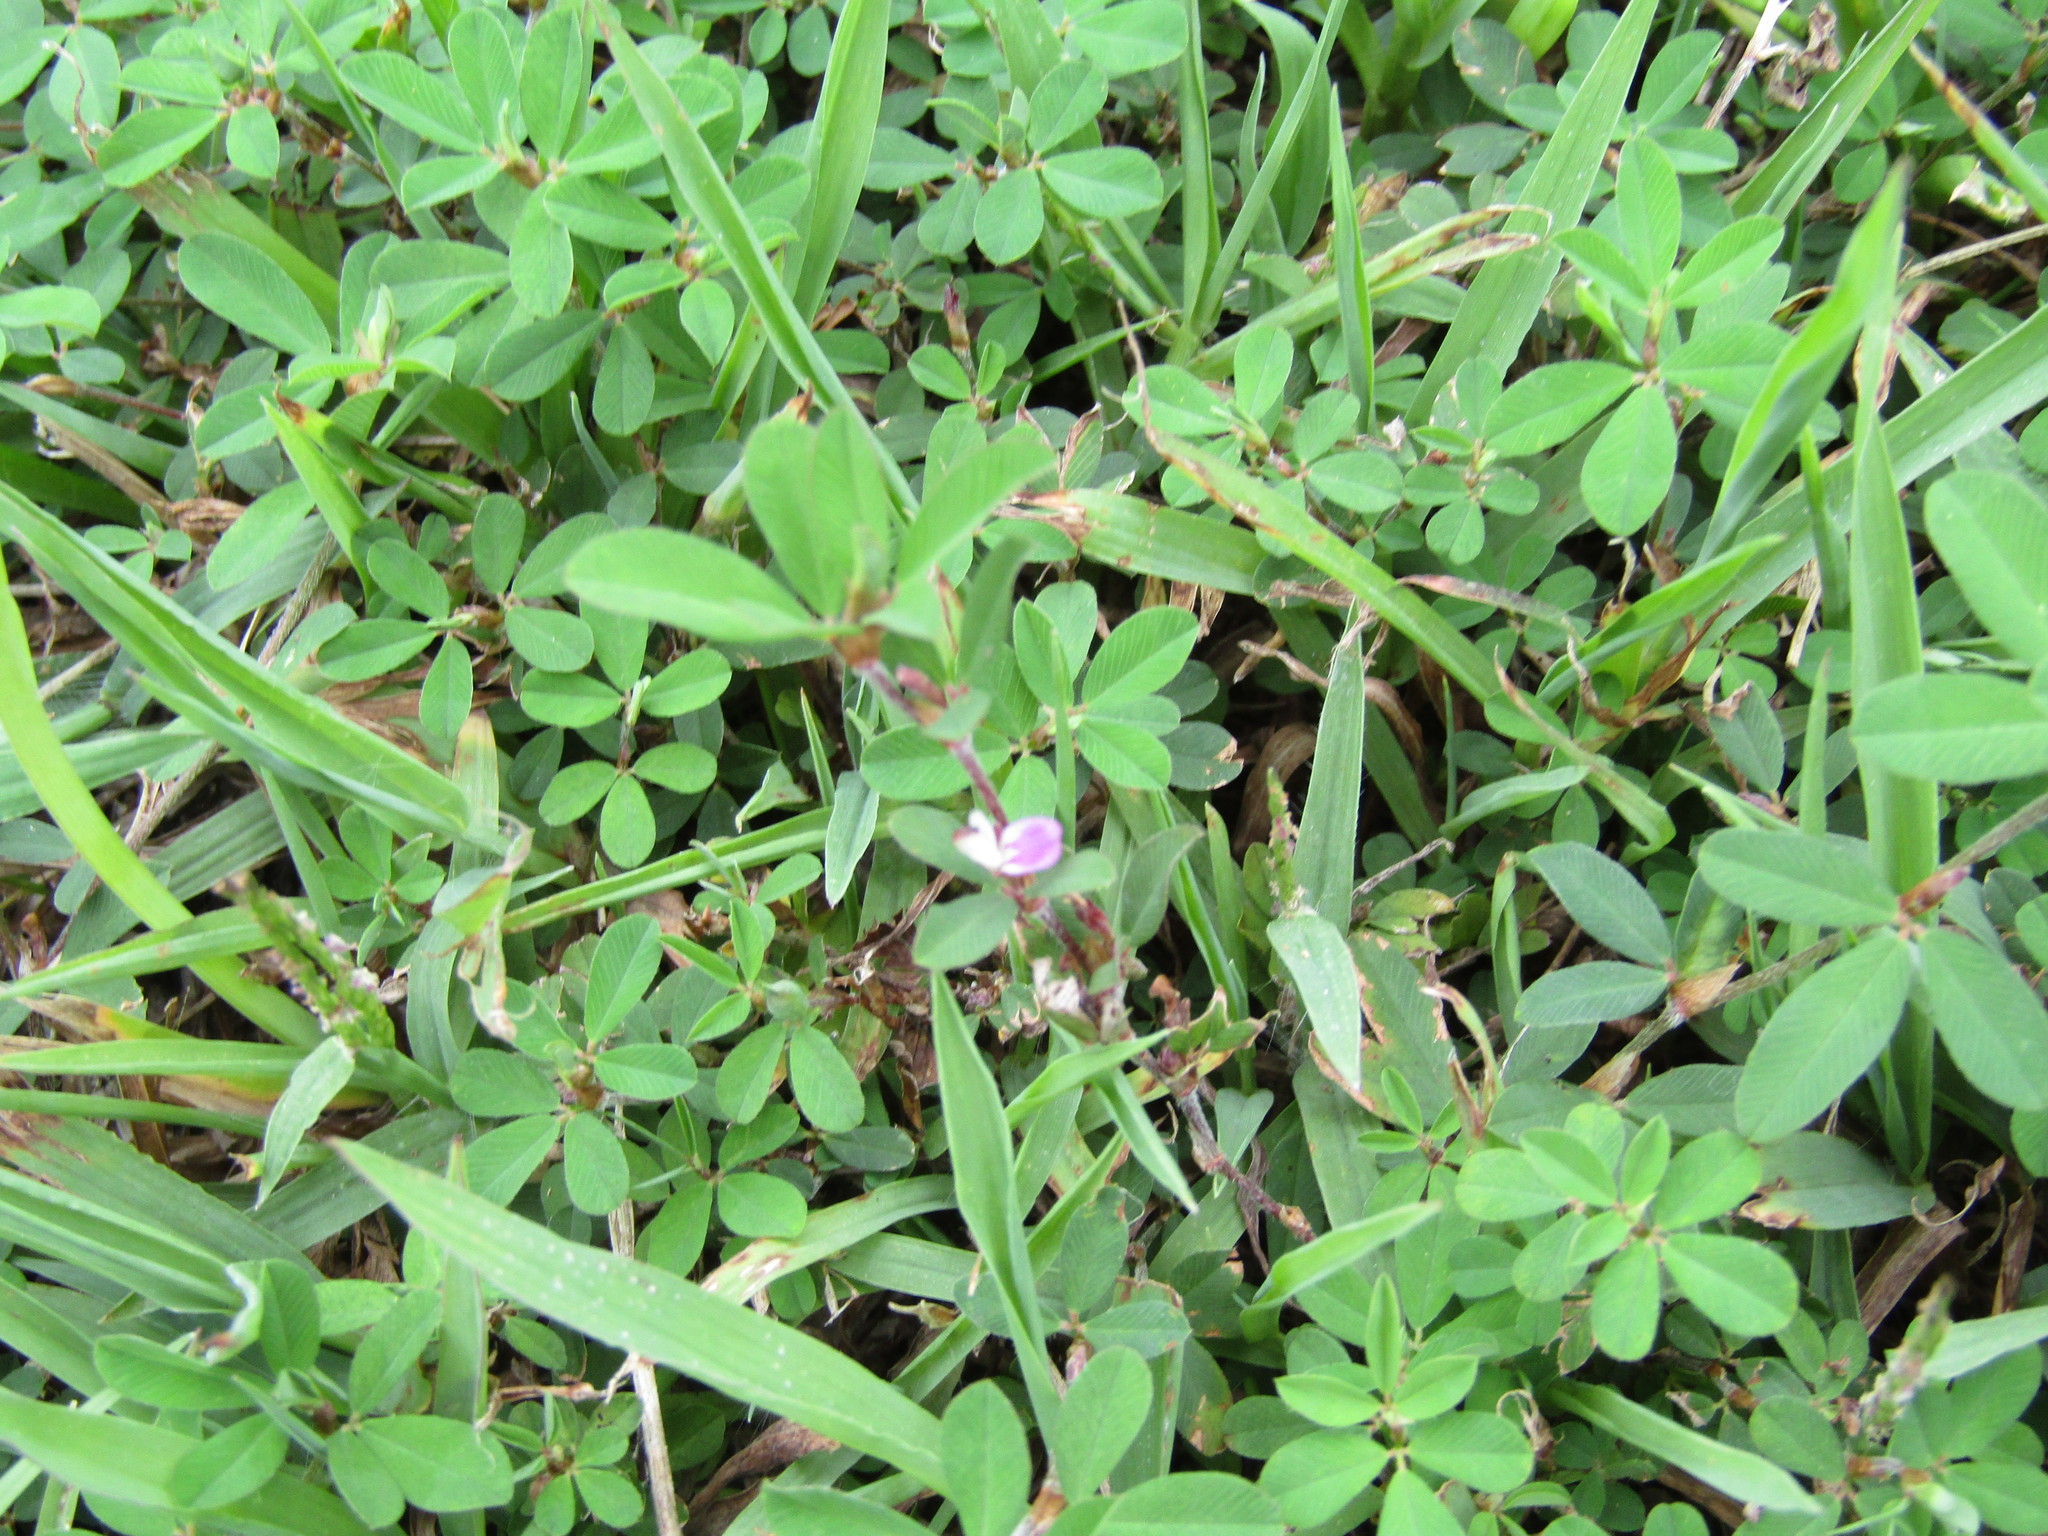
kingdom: Plantae
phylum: Tracheophyta
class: Magnoliopsida
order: Fabales
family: Fabaceae
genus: Kummerowia
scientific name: Kummerowia striata
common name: Japanese clover
